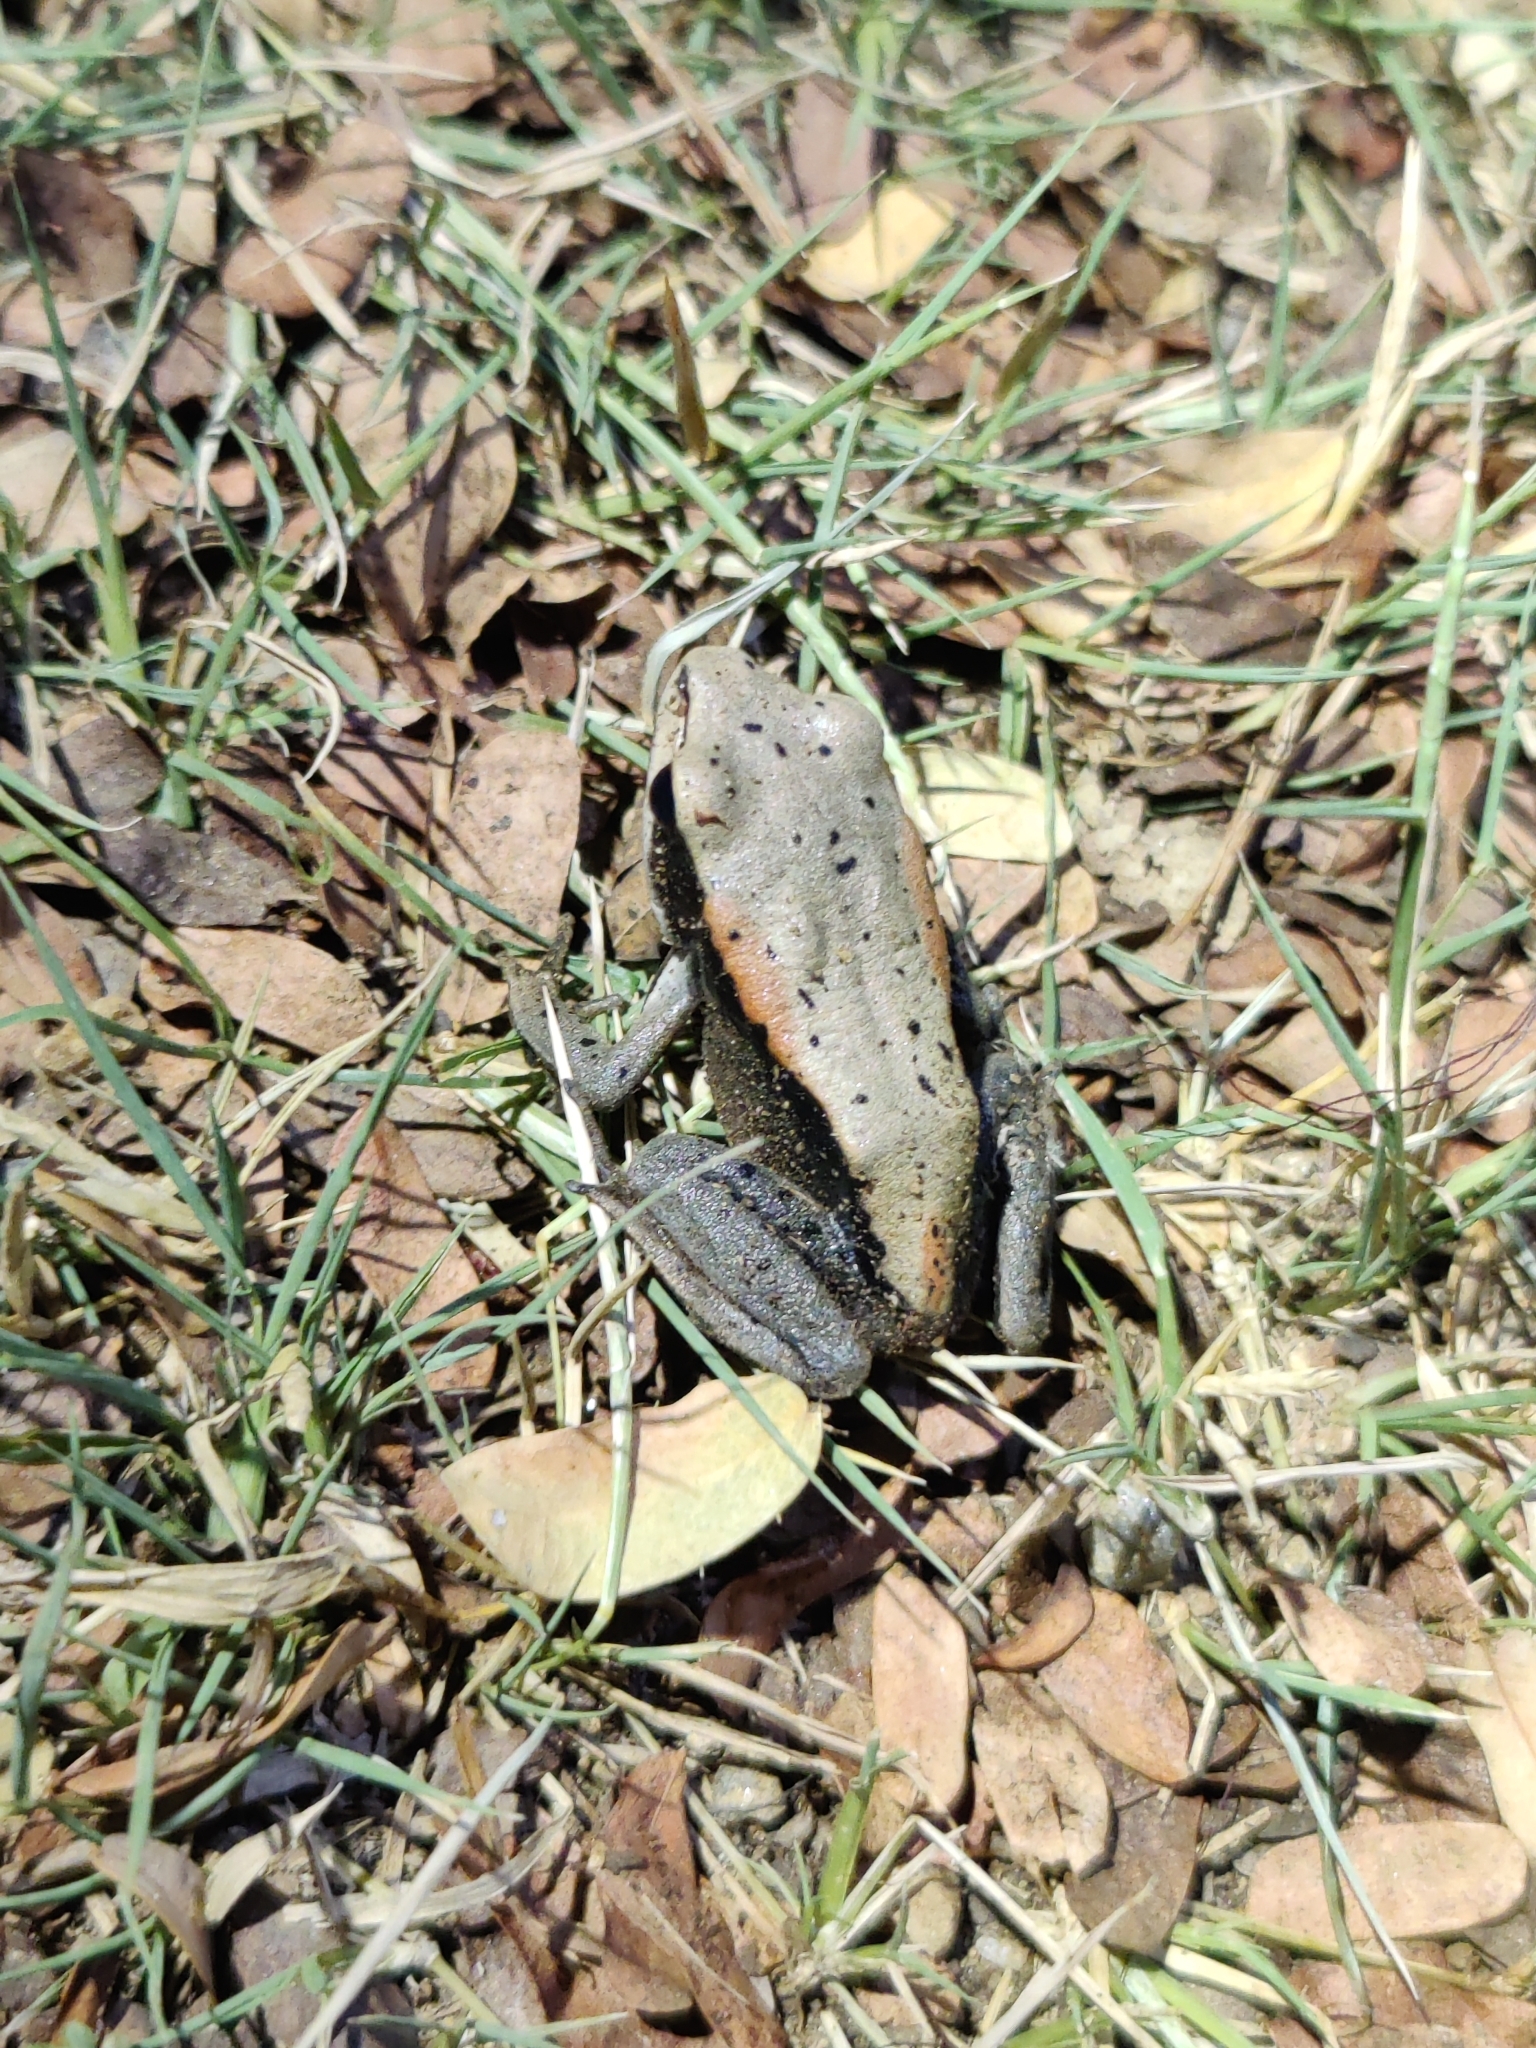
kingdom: Animalia
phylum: Chordata
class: Amphibia
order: Anura
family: Ranidae
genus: Clinotarsus
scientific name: Clinotarsus curtipes
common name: Bicoloured frog
